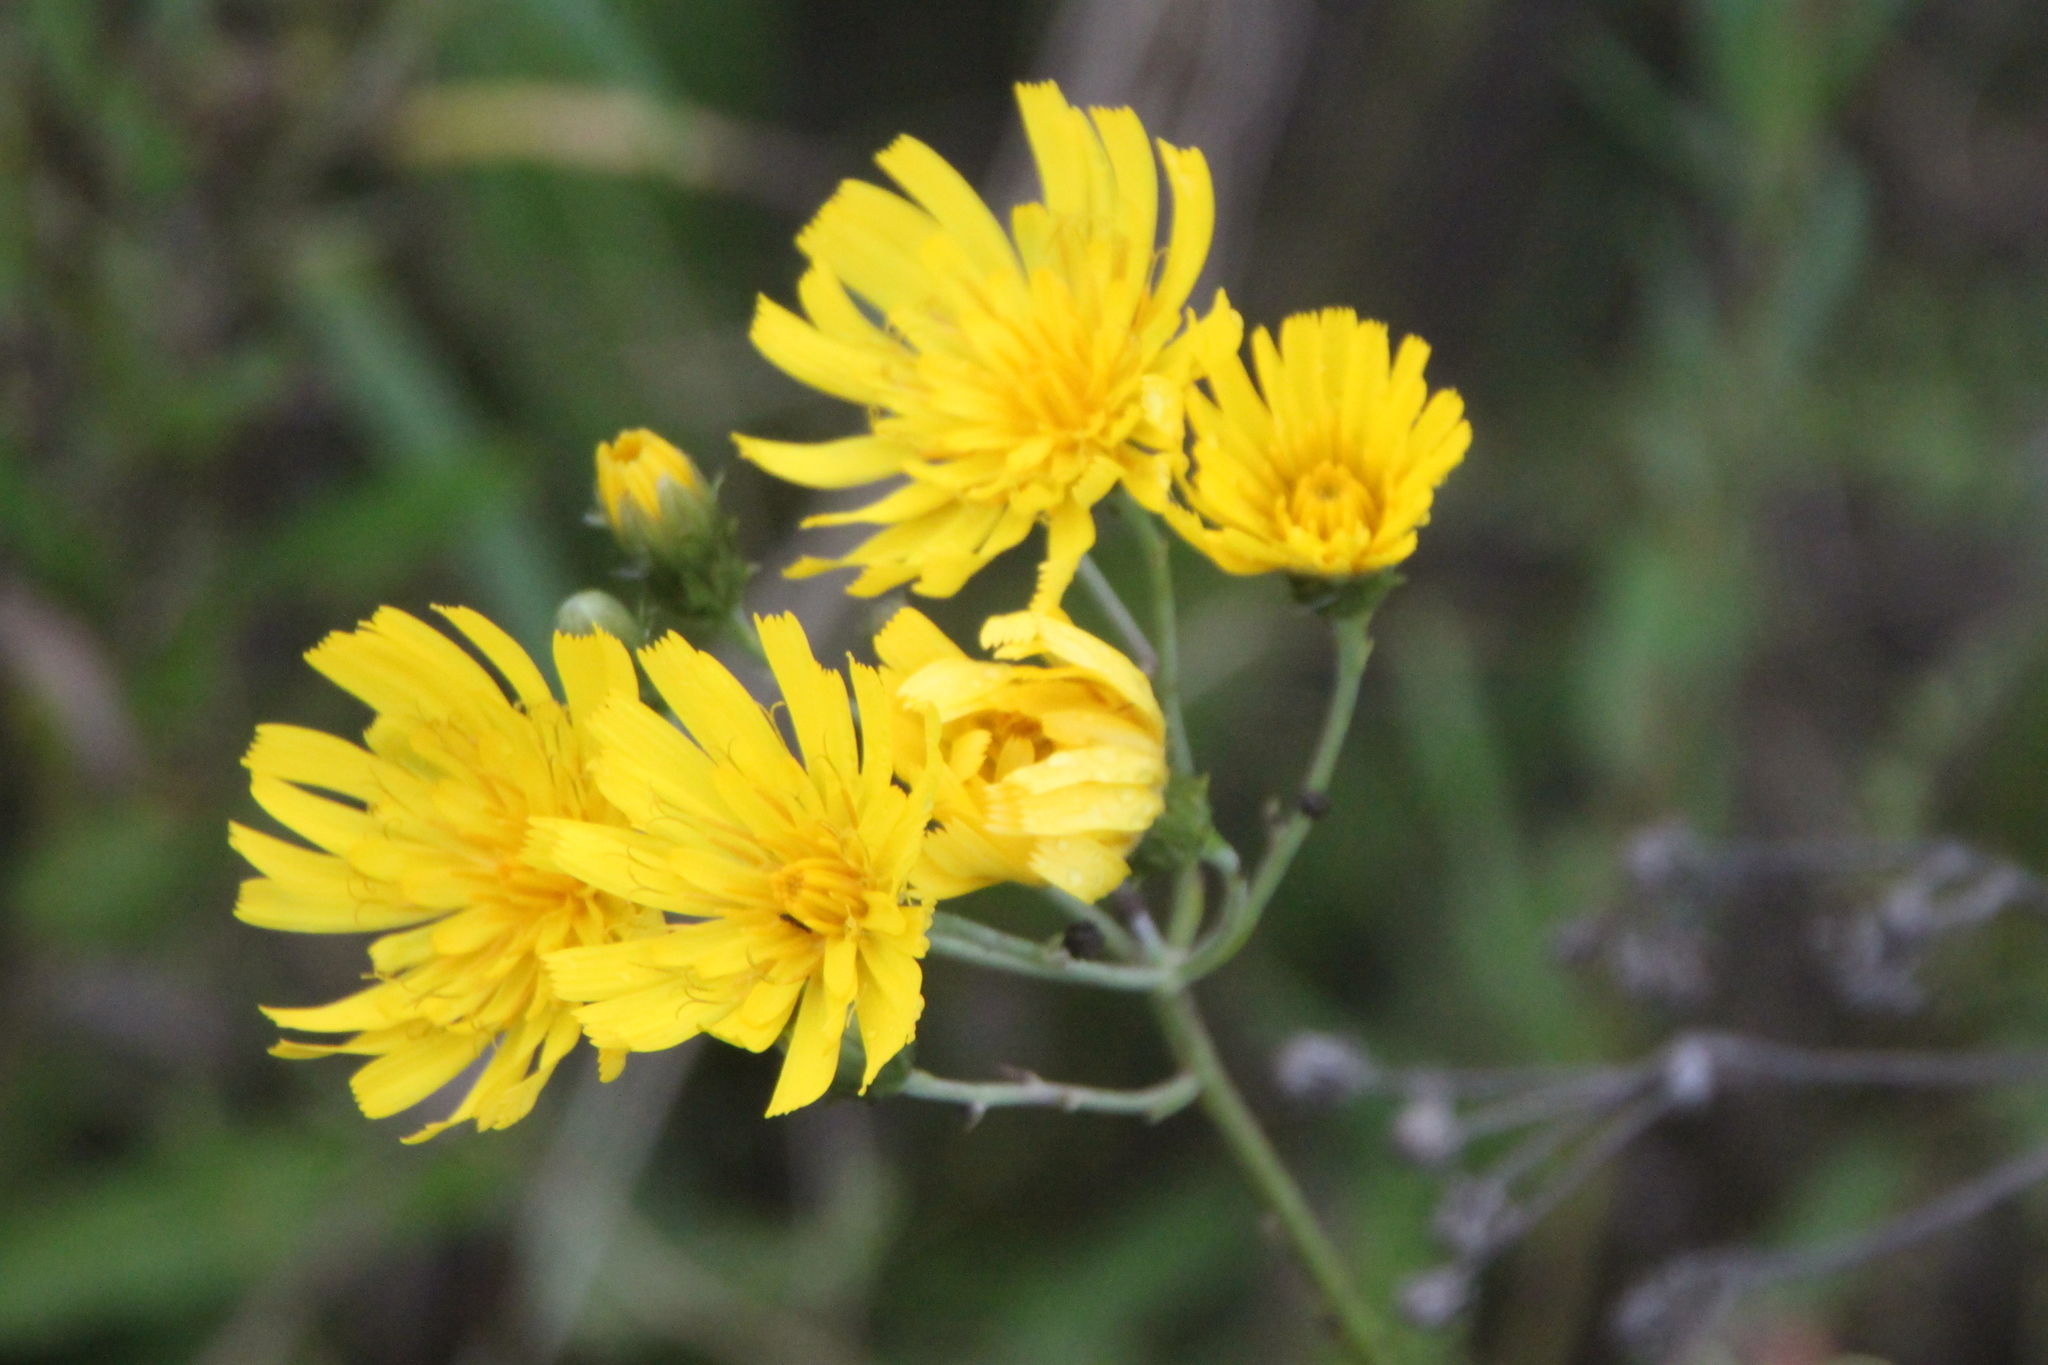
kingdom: Plantae
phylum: Tracheophyta
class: Magnoliopsida
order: Asterales
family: Asteraceae
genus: Hieracium
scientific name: Hieracium umbellatum
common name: Northern hawkweed
